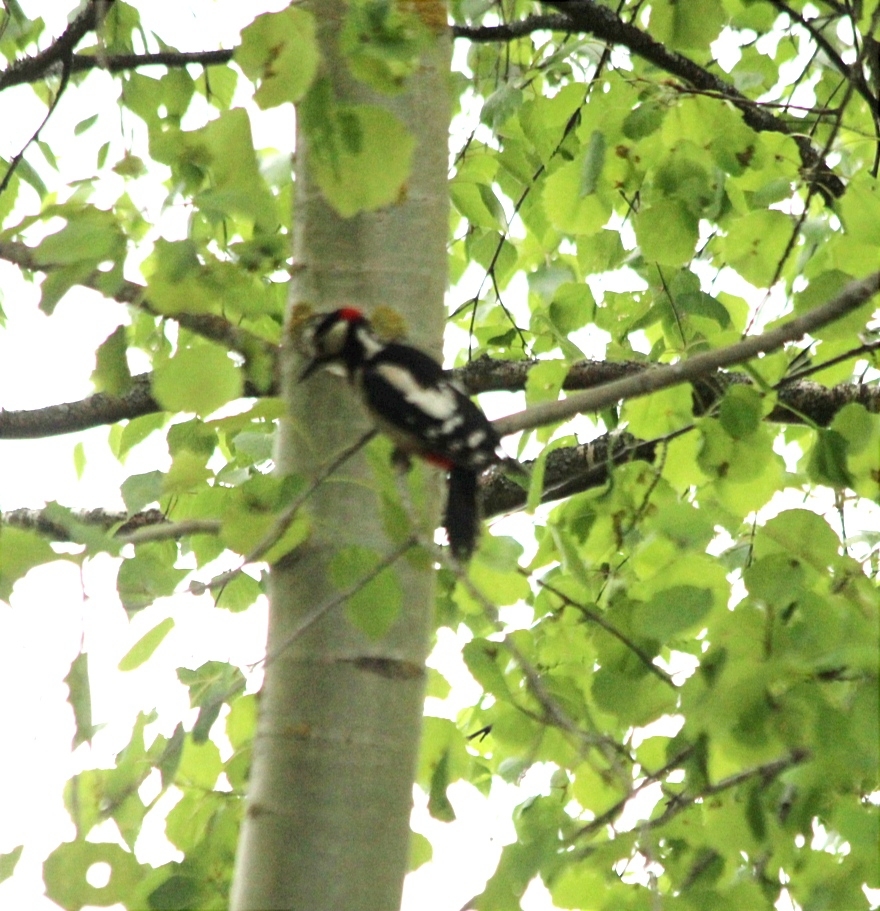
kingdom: Animalia
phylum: Chordata
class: Aves
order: Piciformes
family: Picidae
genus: Dendrocopos
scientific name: Dendrocopos major
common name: Great spotted woodpecker
